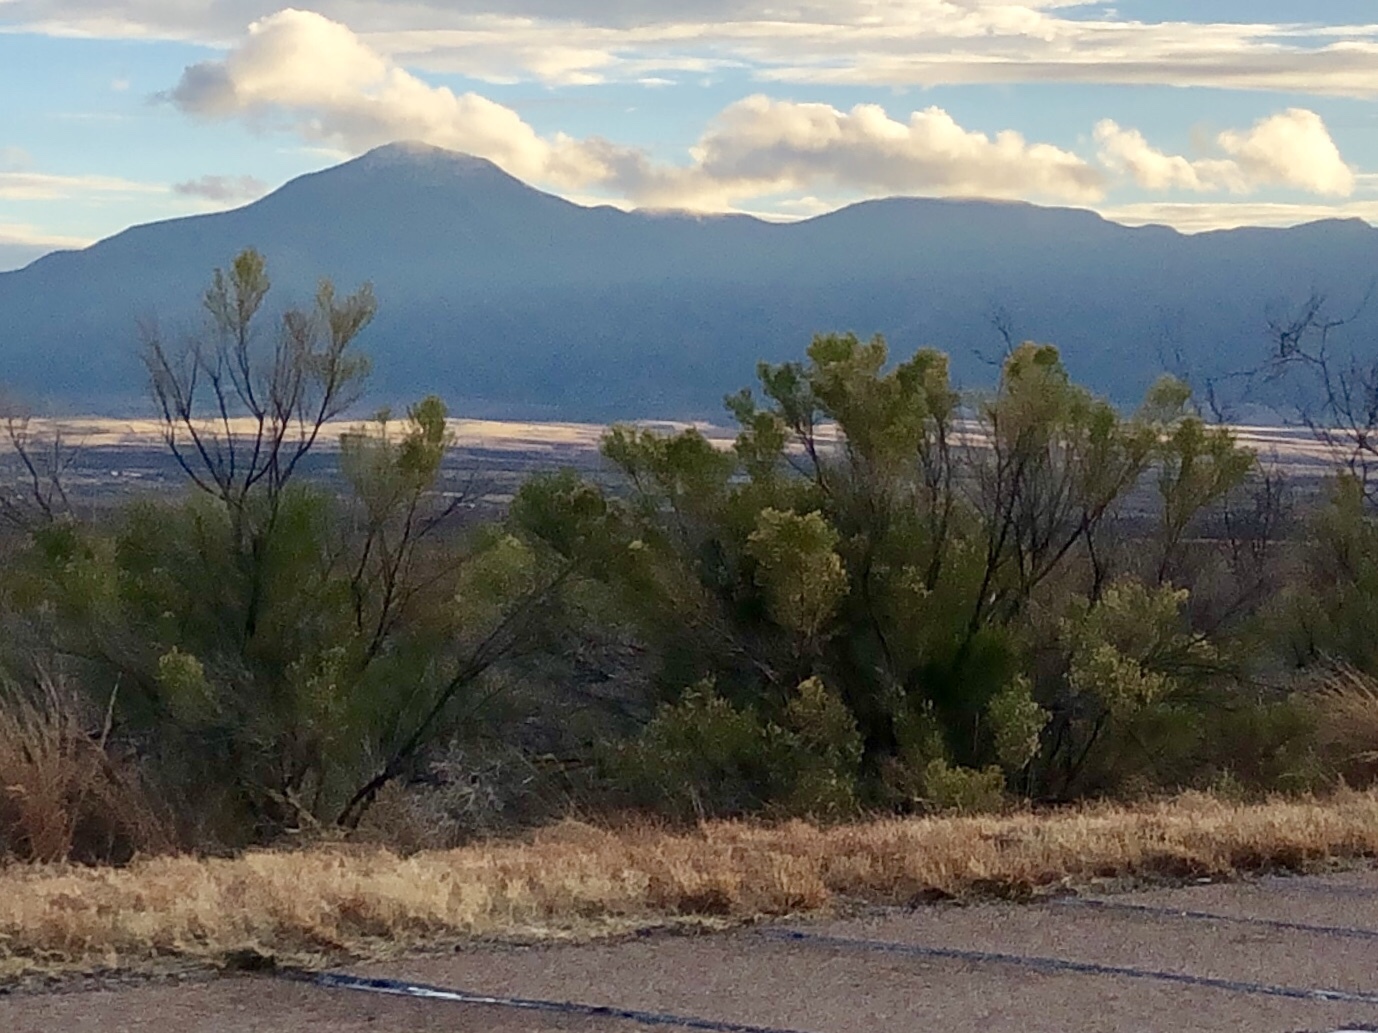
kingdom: Plantae
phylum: Tracheophyta
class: Magnoliopsida
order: Asterales
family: Asteraceae
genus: Baccharis
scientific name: Baccharis sarothroides
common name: Desert-broom
